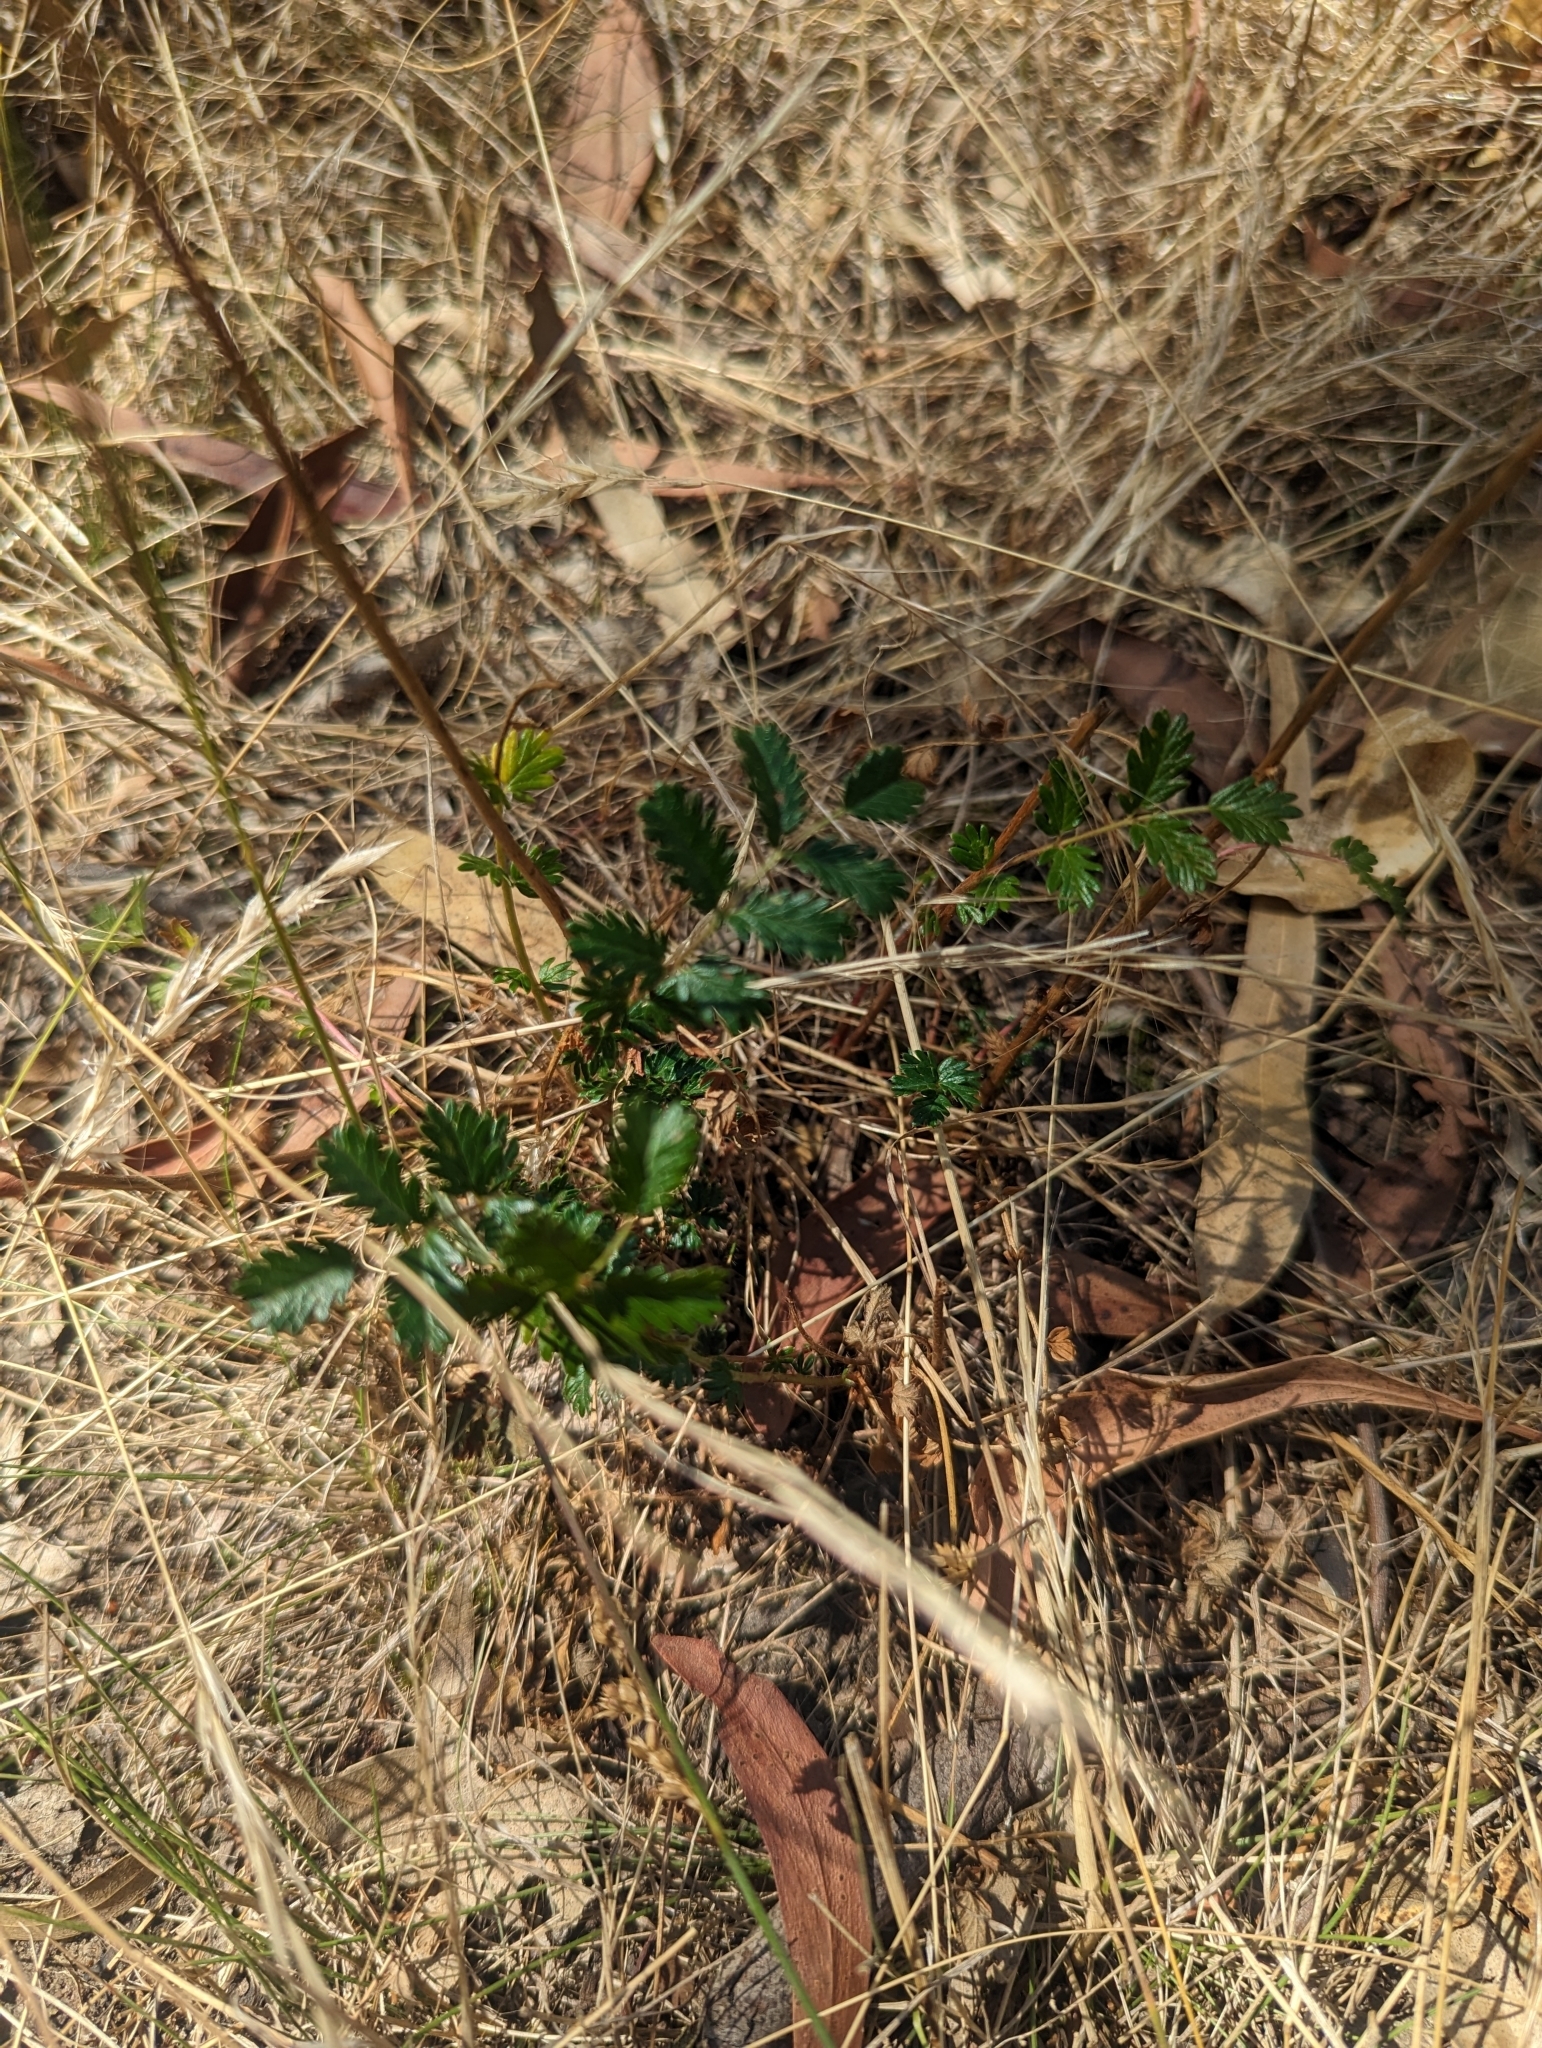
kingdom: Plantae
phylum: Tracheophyta
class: Magnoliopsida
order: Rosales
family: Rosaceae
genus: Acaena
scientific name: Acaena echinata
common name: Sheepbur
